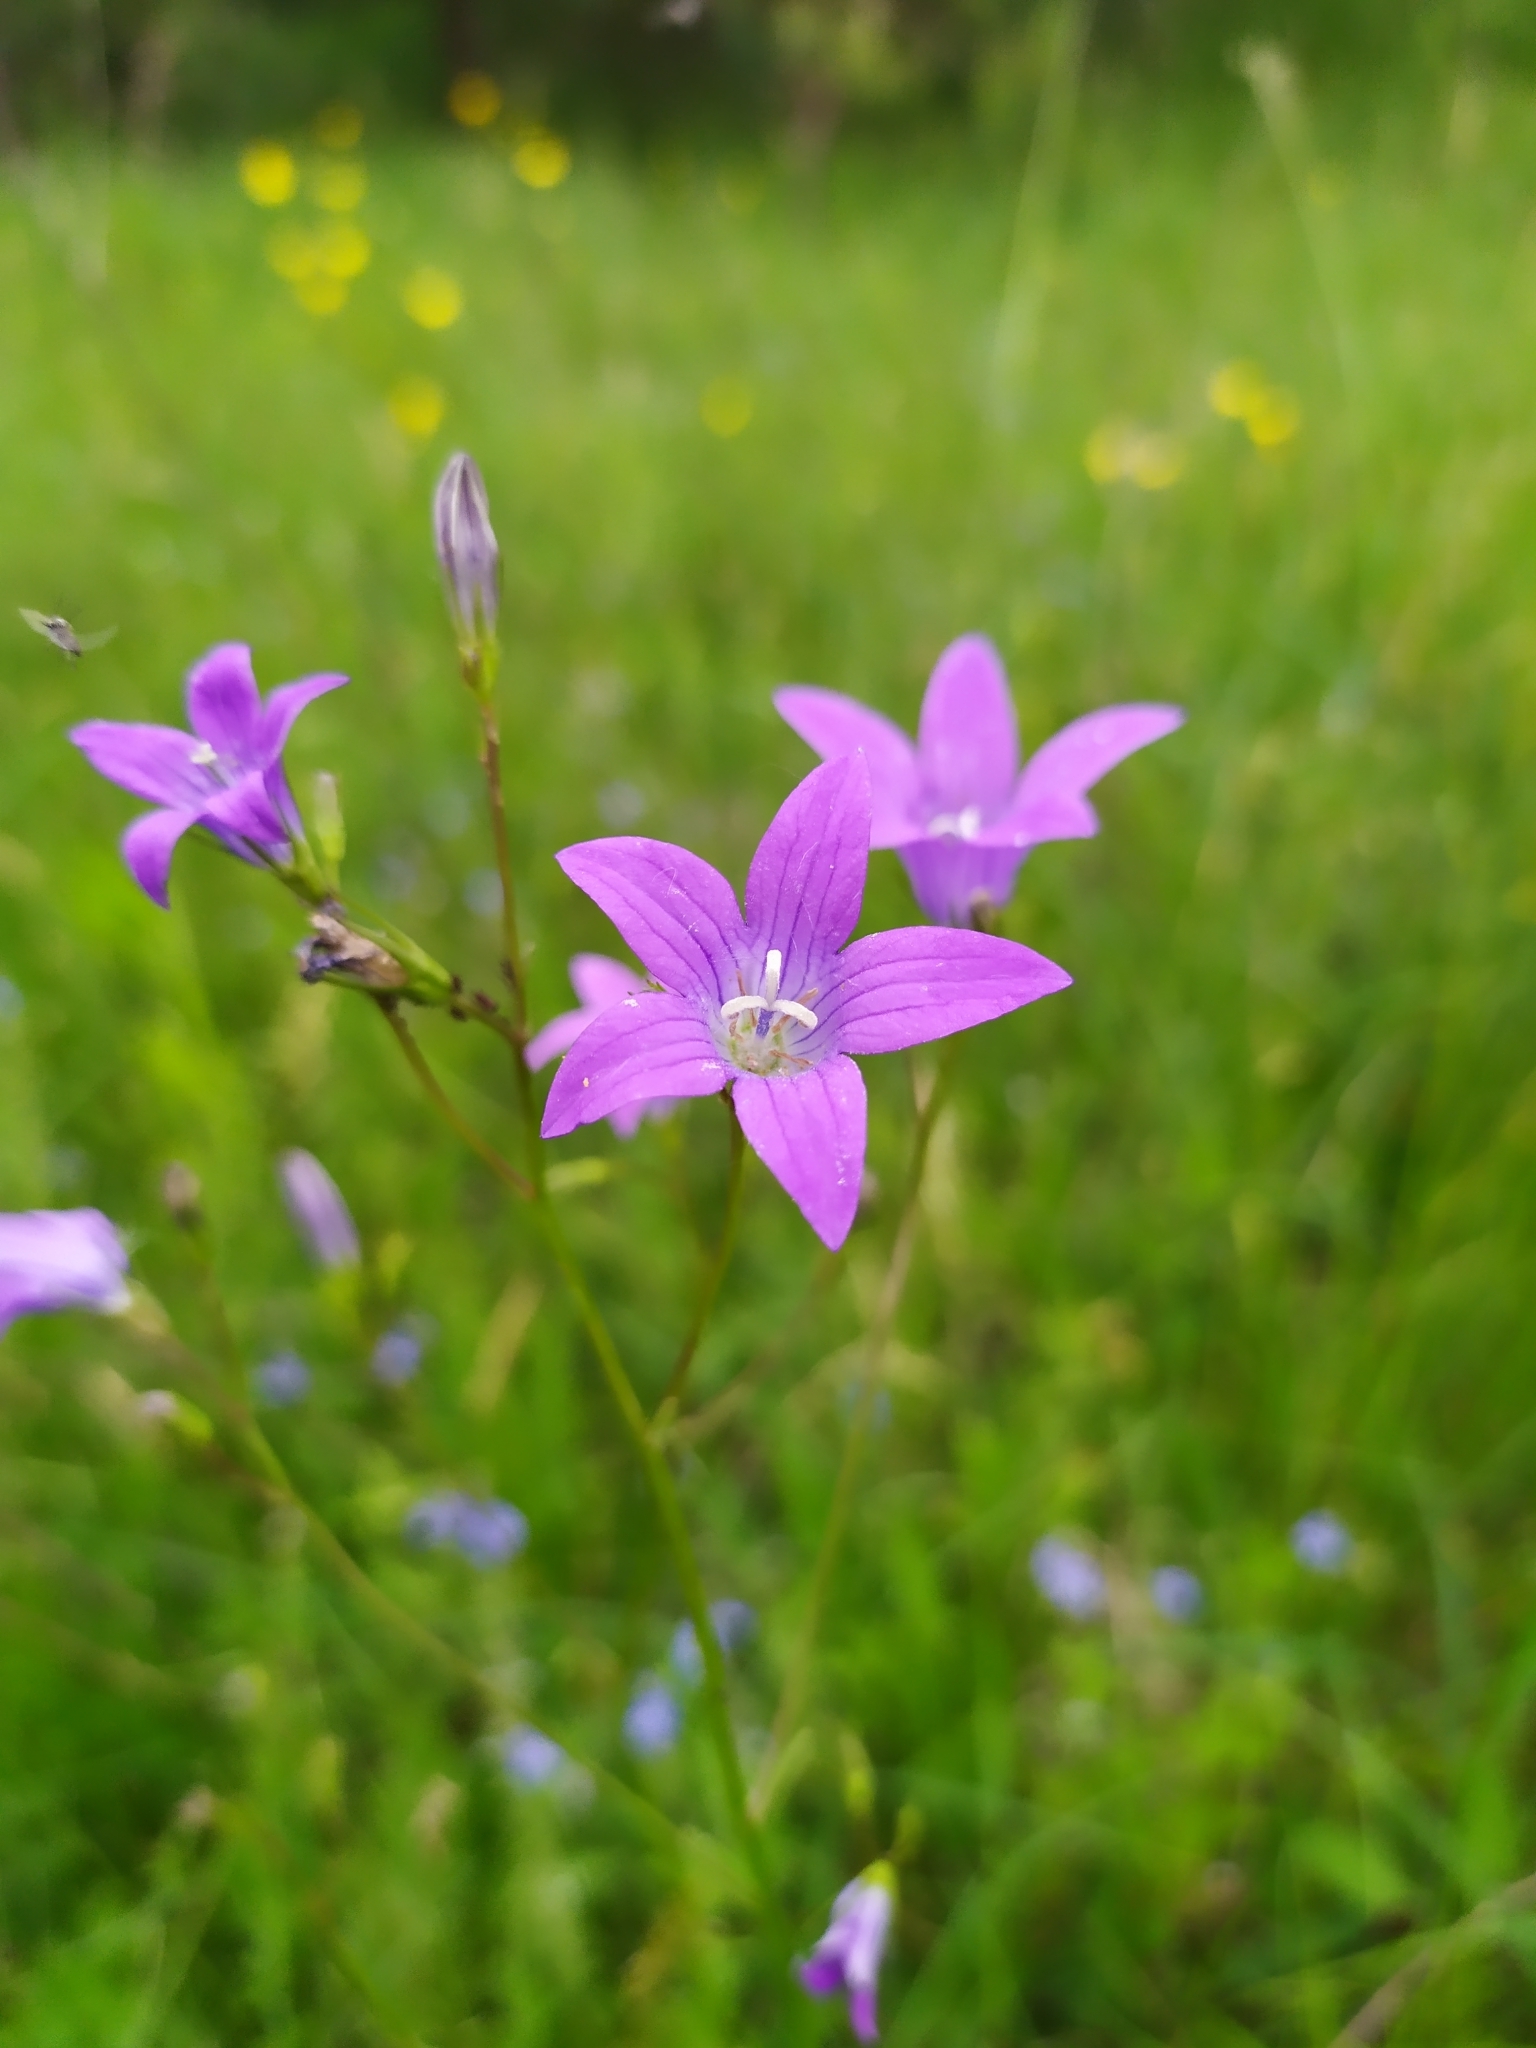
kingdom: Plantae
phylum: Tracheophyta
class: Magnoliopsida
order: Asterales
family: Campanulaceae
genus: Campanula
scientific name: Campanula patula
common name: Spreading bellflower
